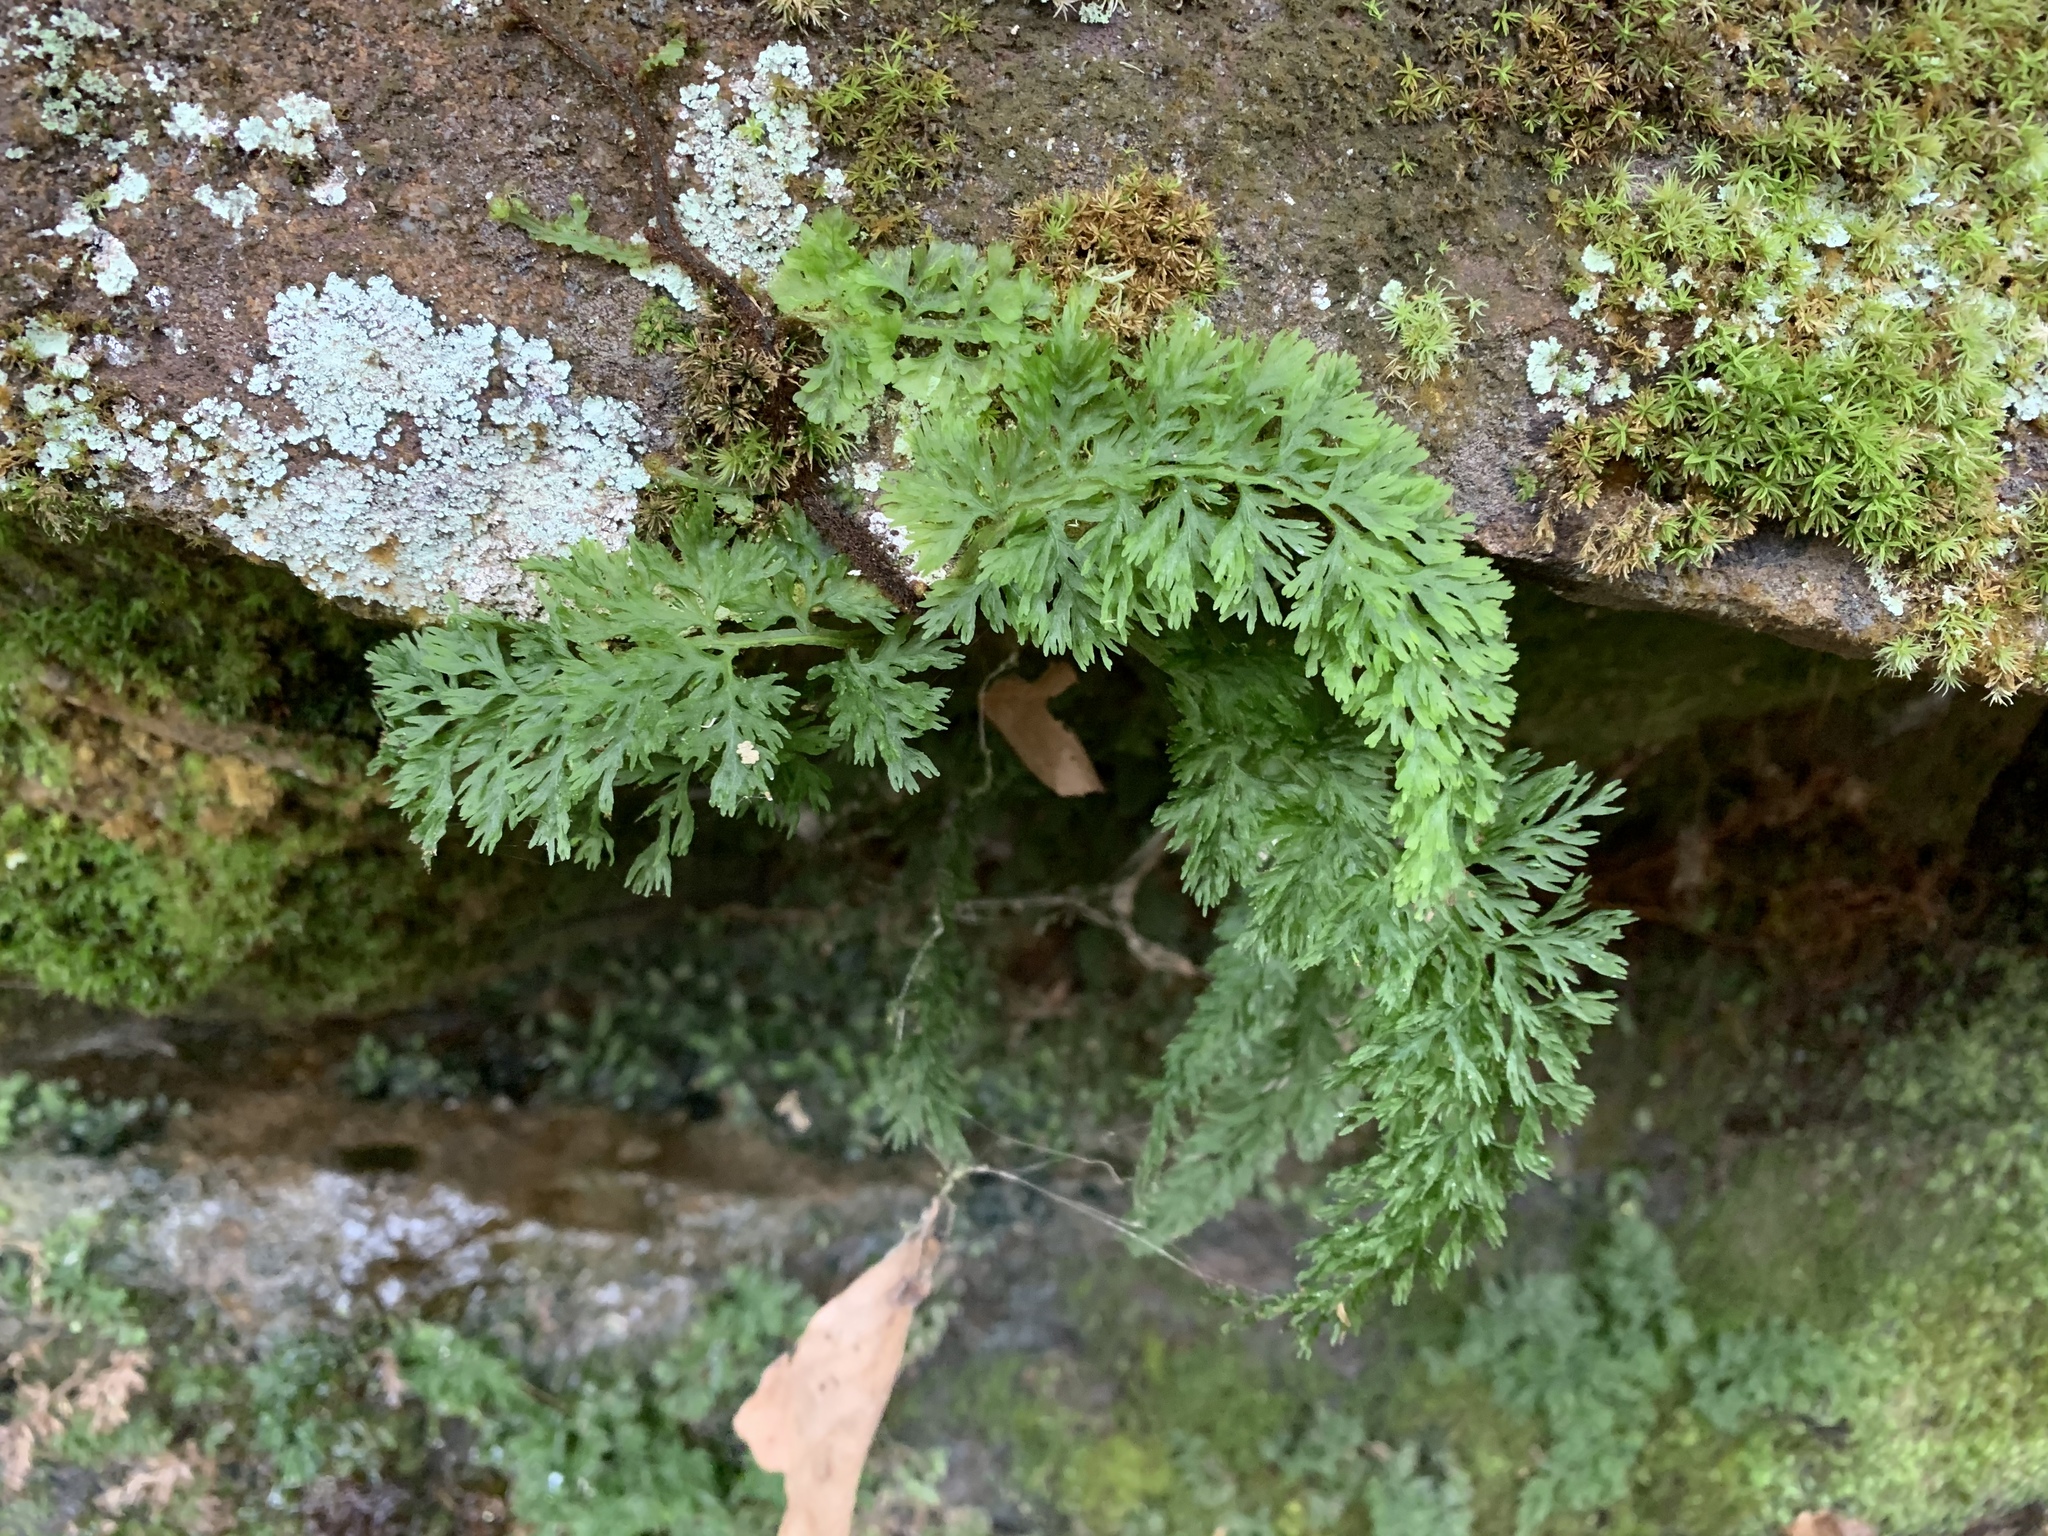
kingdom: Plantae
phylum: Tracheophyta
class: Polypodiopsida
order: Hymenophyllales
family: Hymenophyllaceae
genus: Vandenboschia
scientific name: Vandenboschia boschiana
